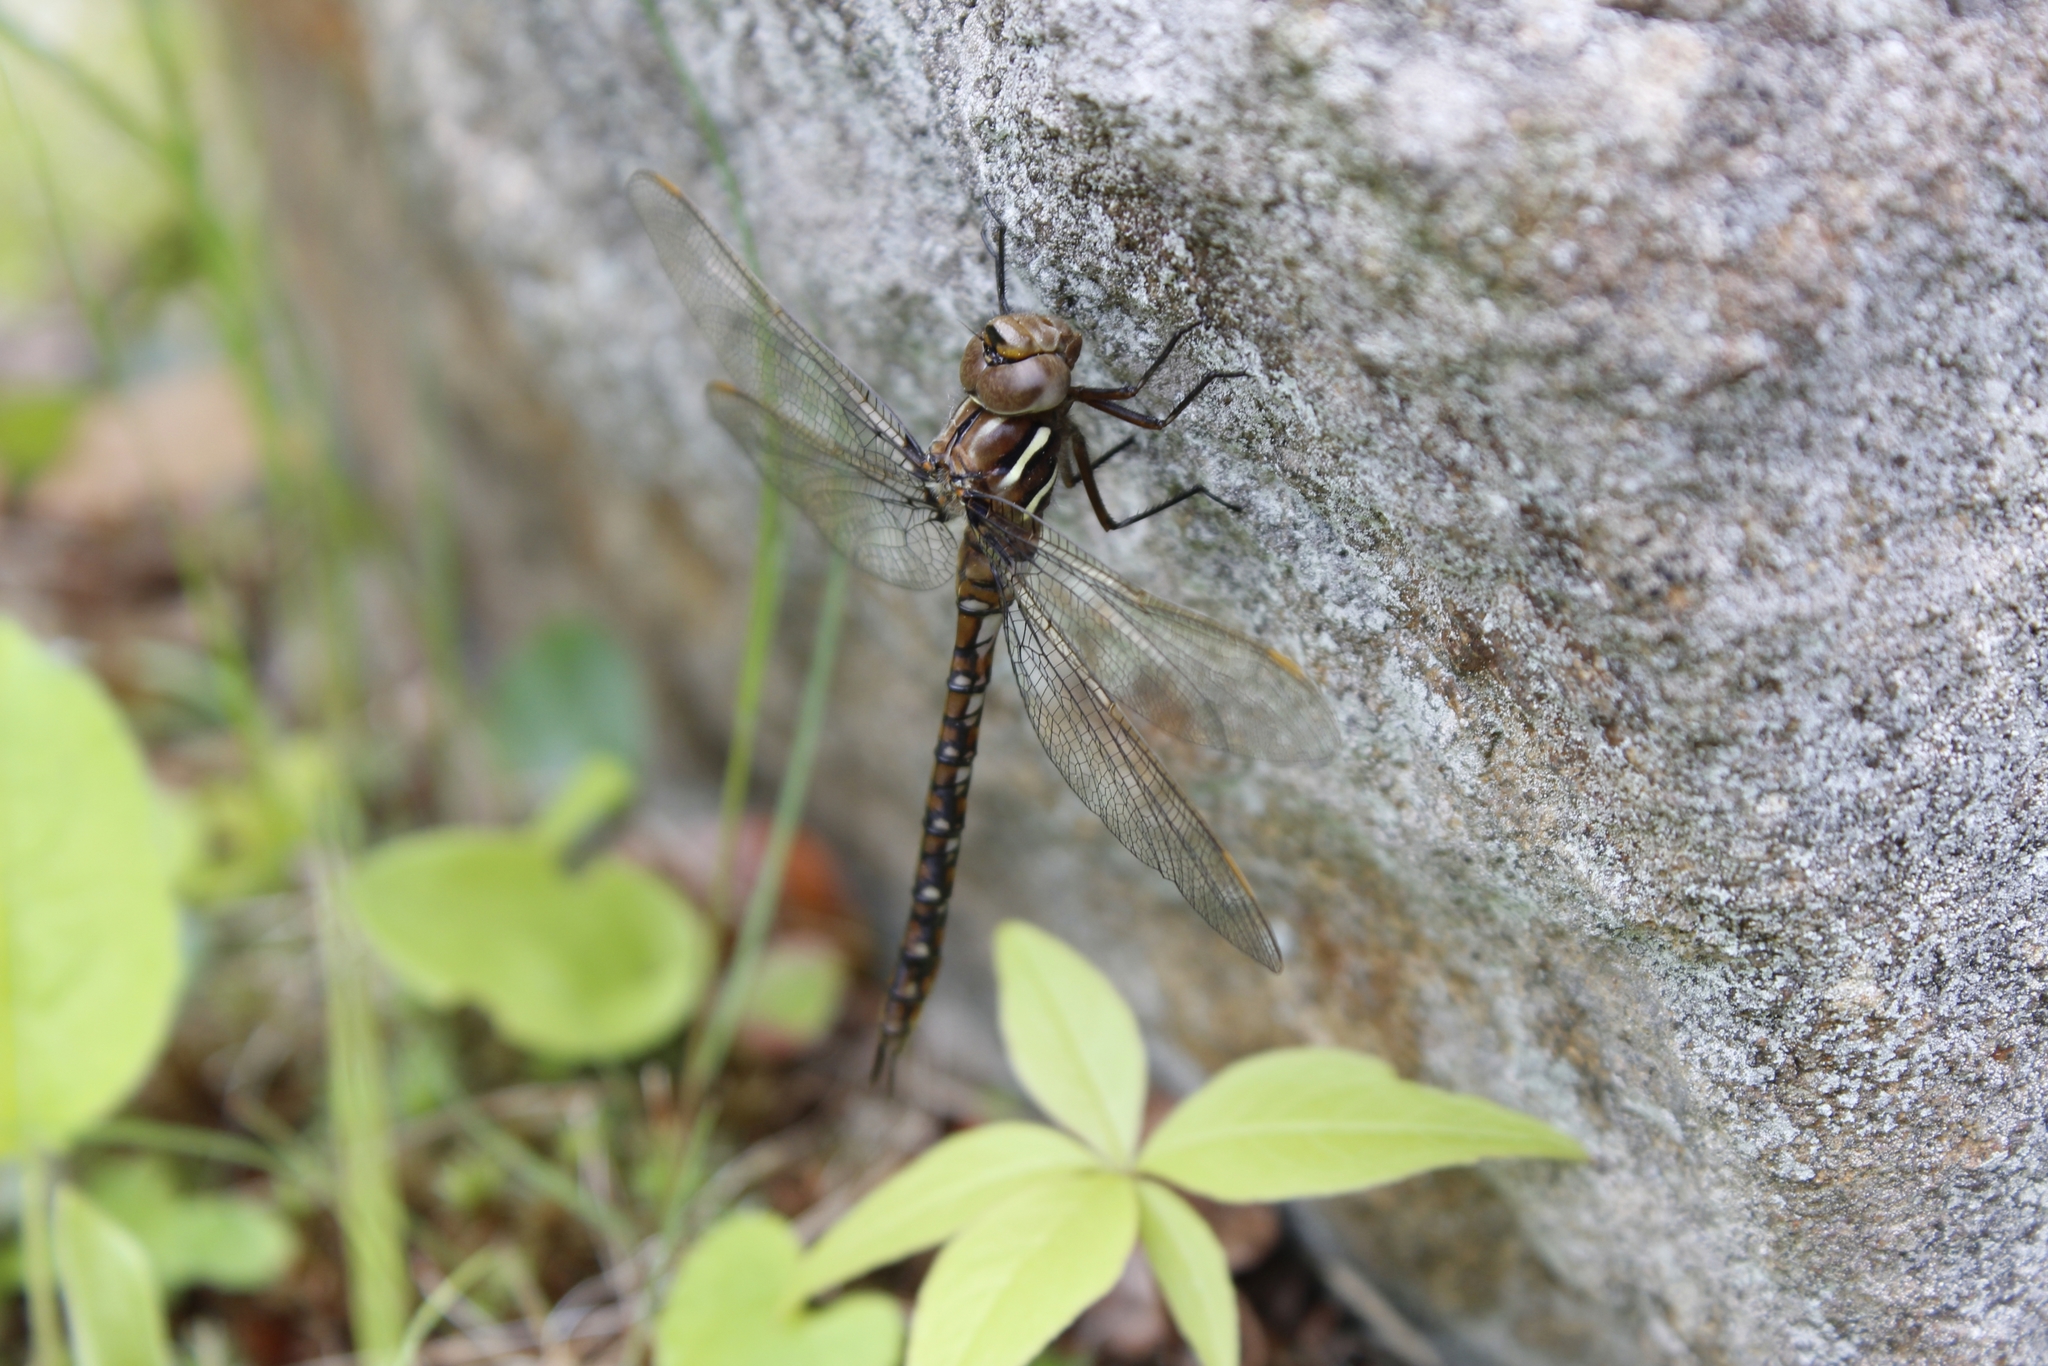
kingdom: Animalia
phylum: Arthropoda
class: Insecta
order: Odonata
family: Aeshnidae
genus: Basiaeschna
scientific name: Basiaeschna janata
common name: Springtime darner
